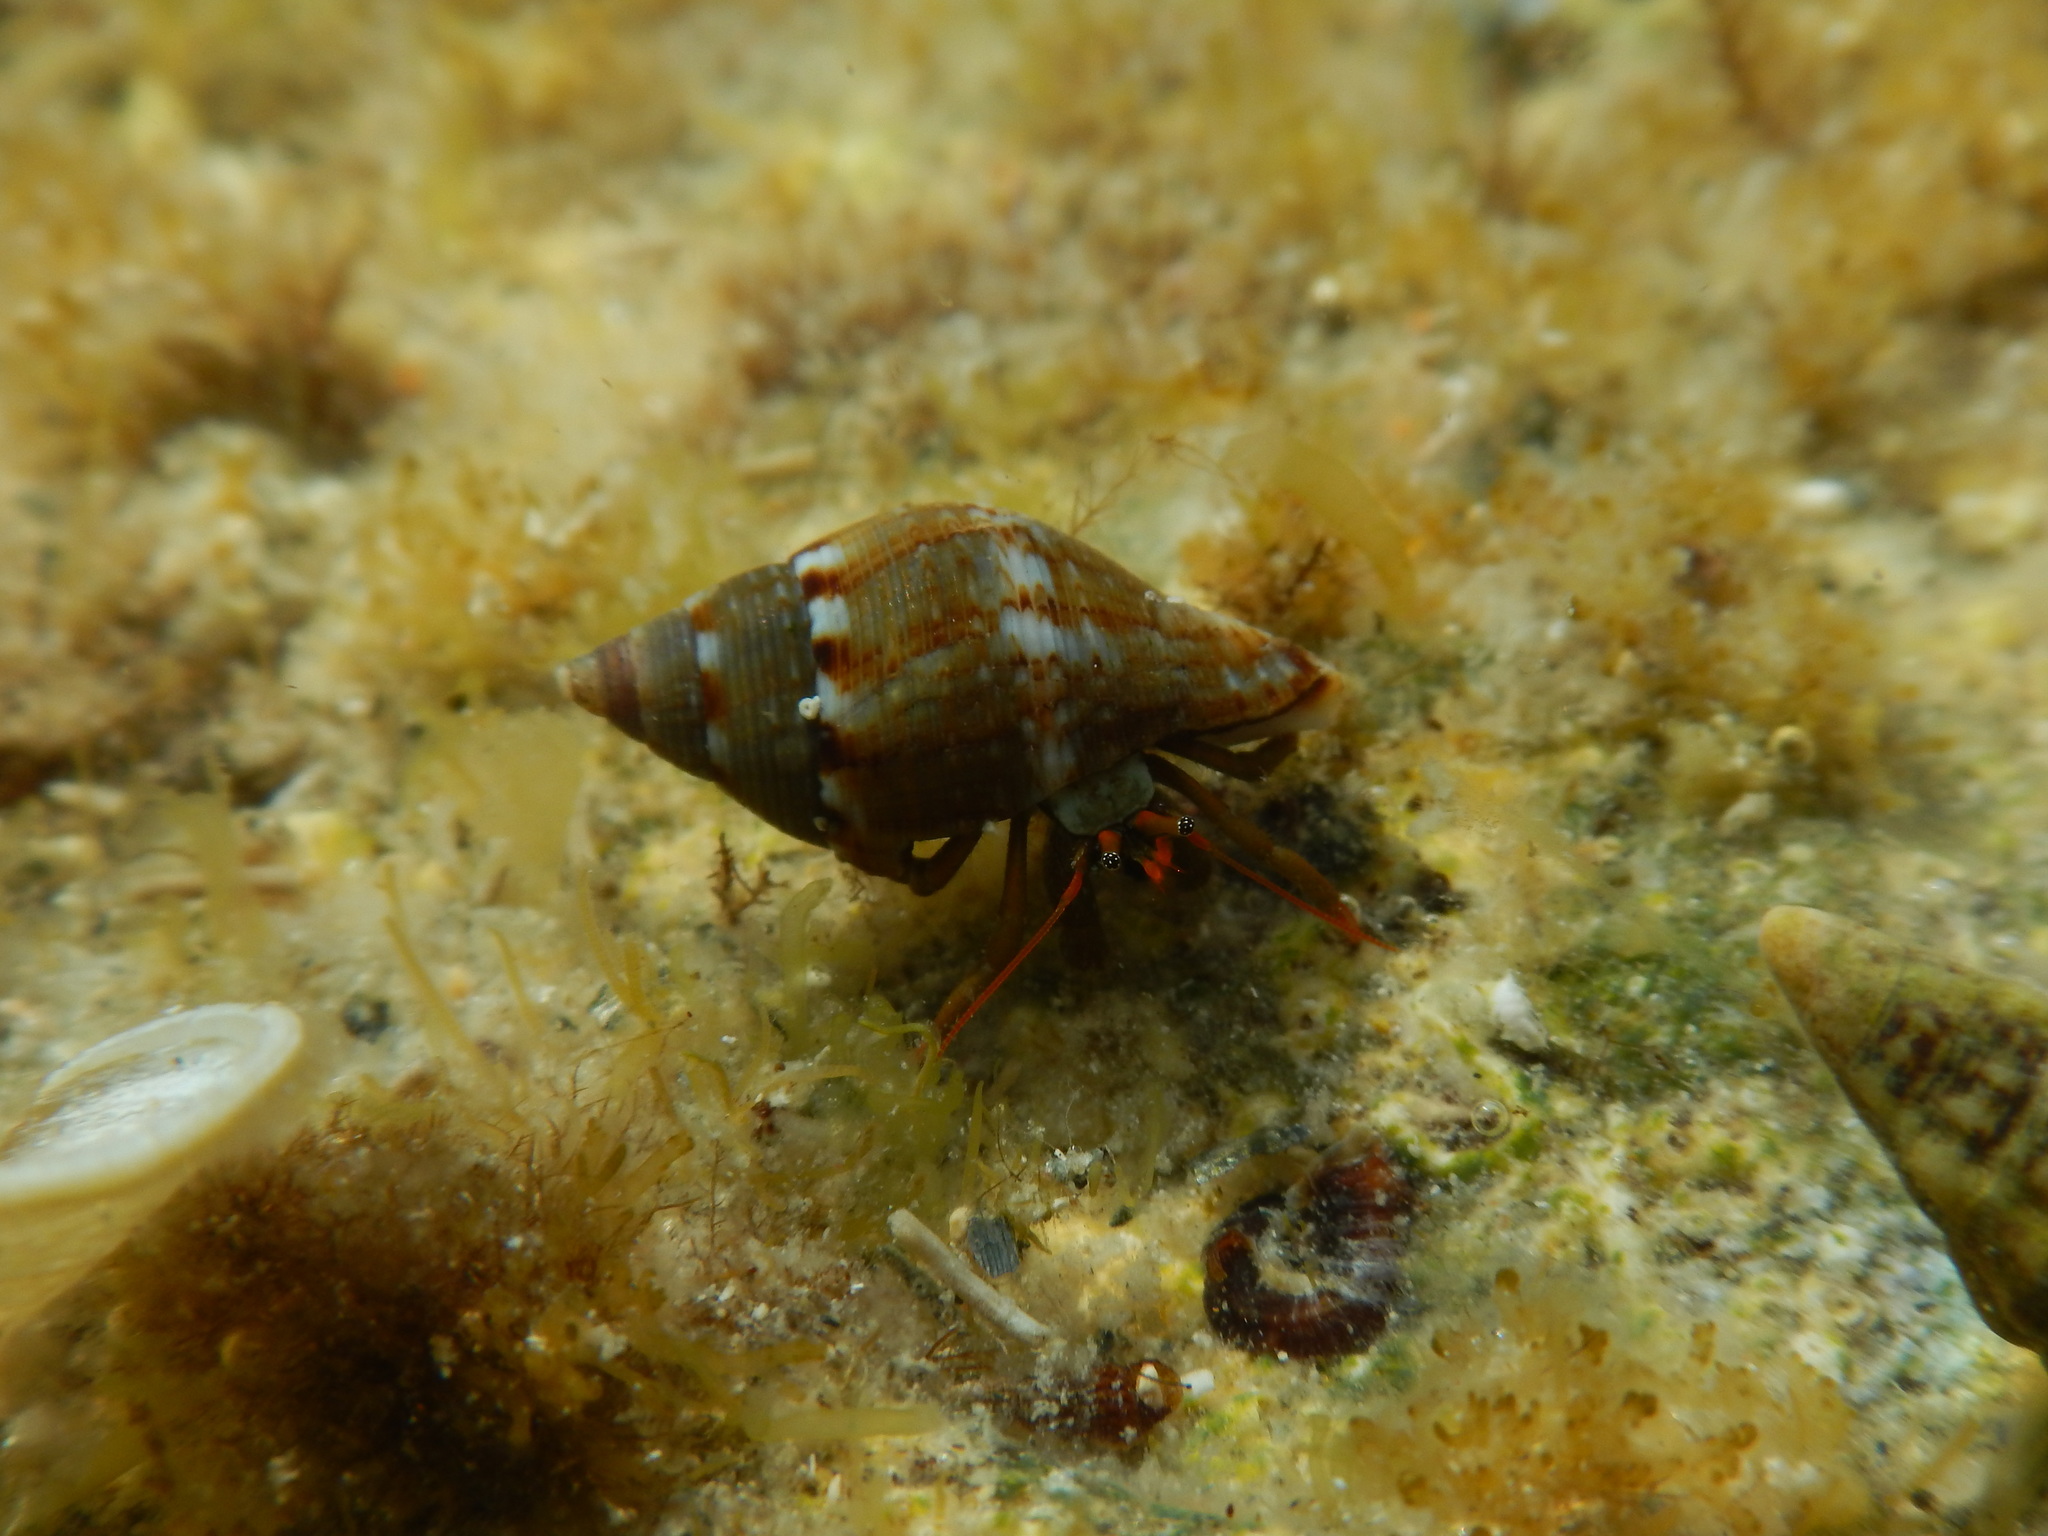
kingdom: Animalia
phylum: Arthropoda
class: Malacostraca
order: Decapoda
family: Diogenidae
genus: Clibanarius
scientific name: Clibanarius erythropus
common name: Hermit crab
